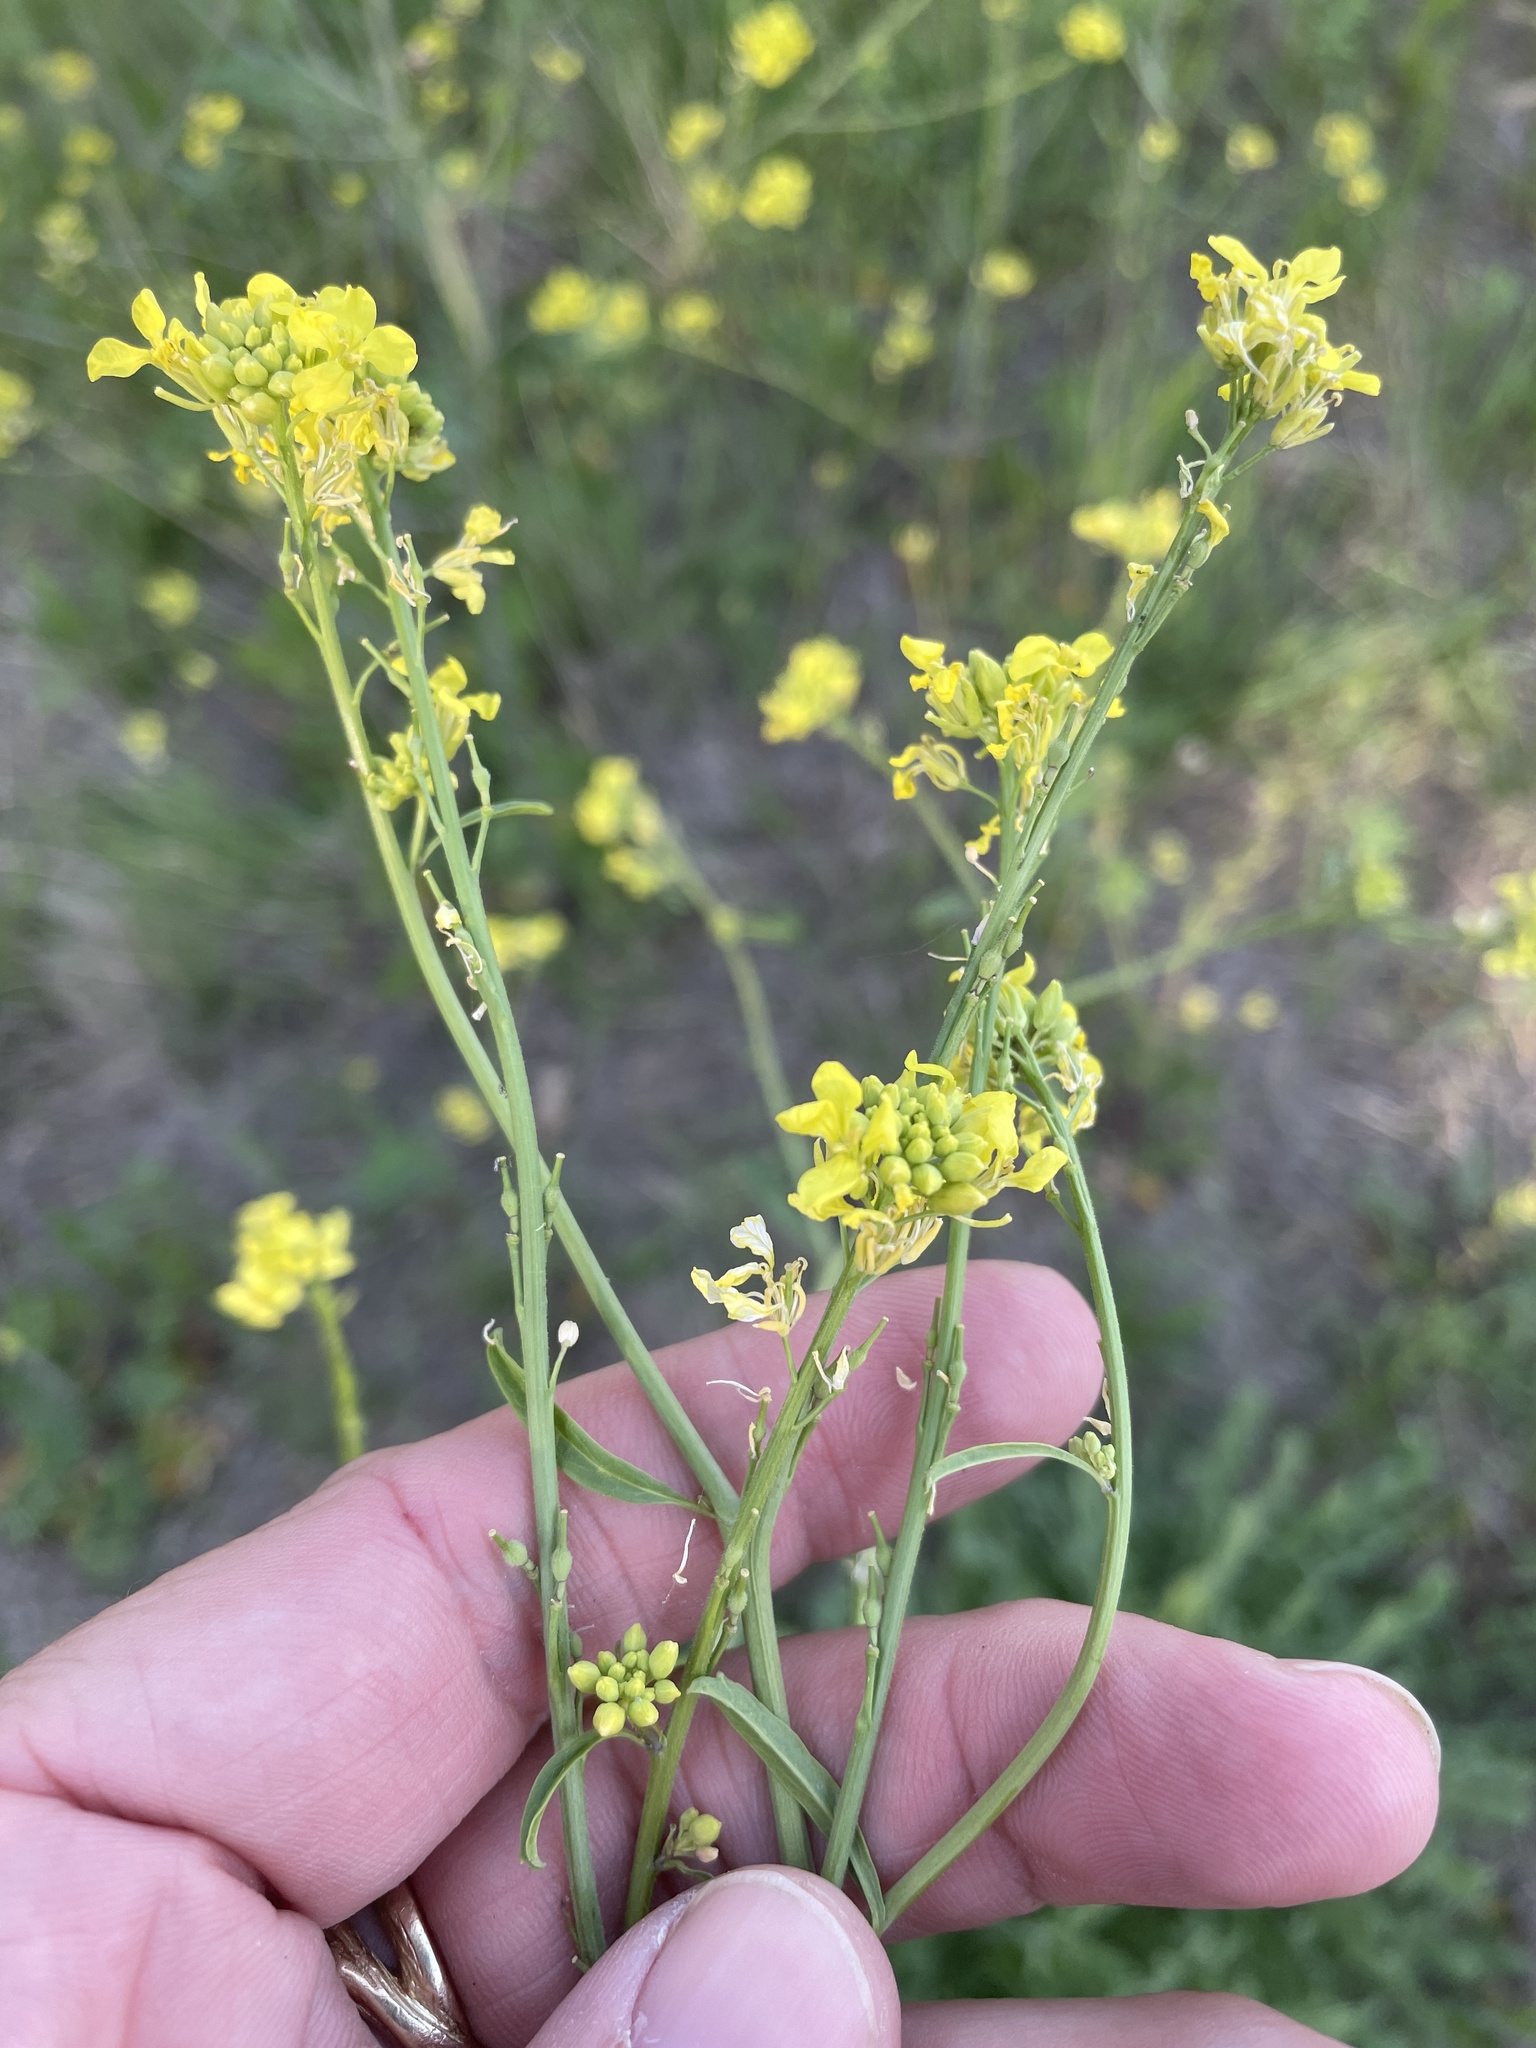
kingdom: Plantae
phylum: Tracheophyta
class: Magnoliopsida
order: Brassicales
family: Brassicaceae
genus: Rapistrum
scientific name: Rapistrum rugosum
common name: Annual bastardcabbage
